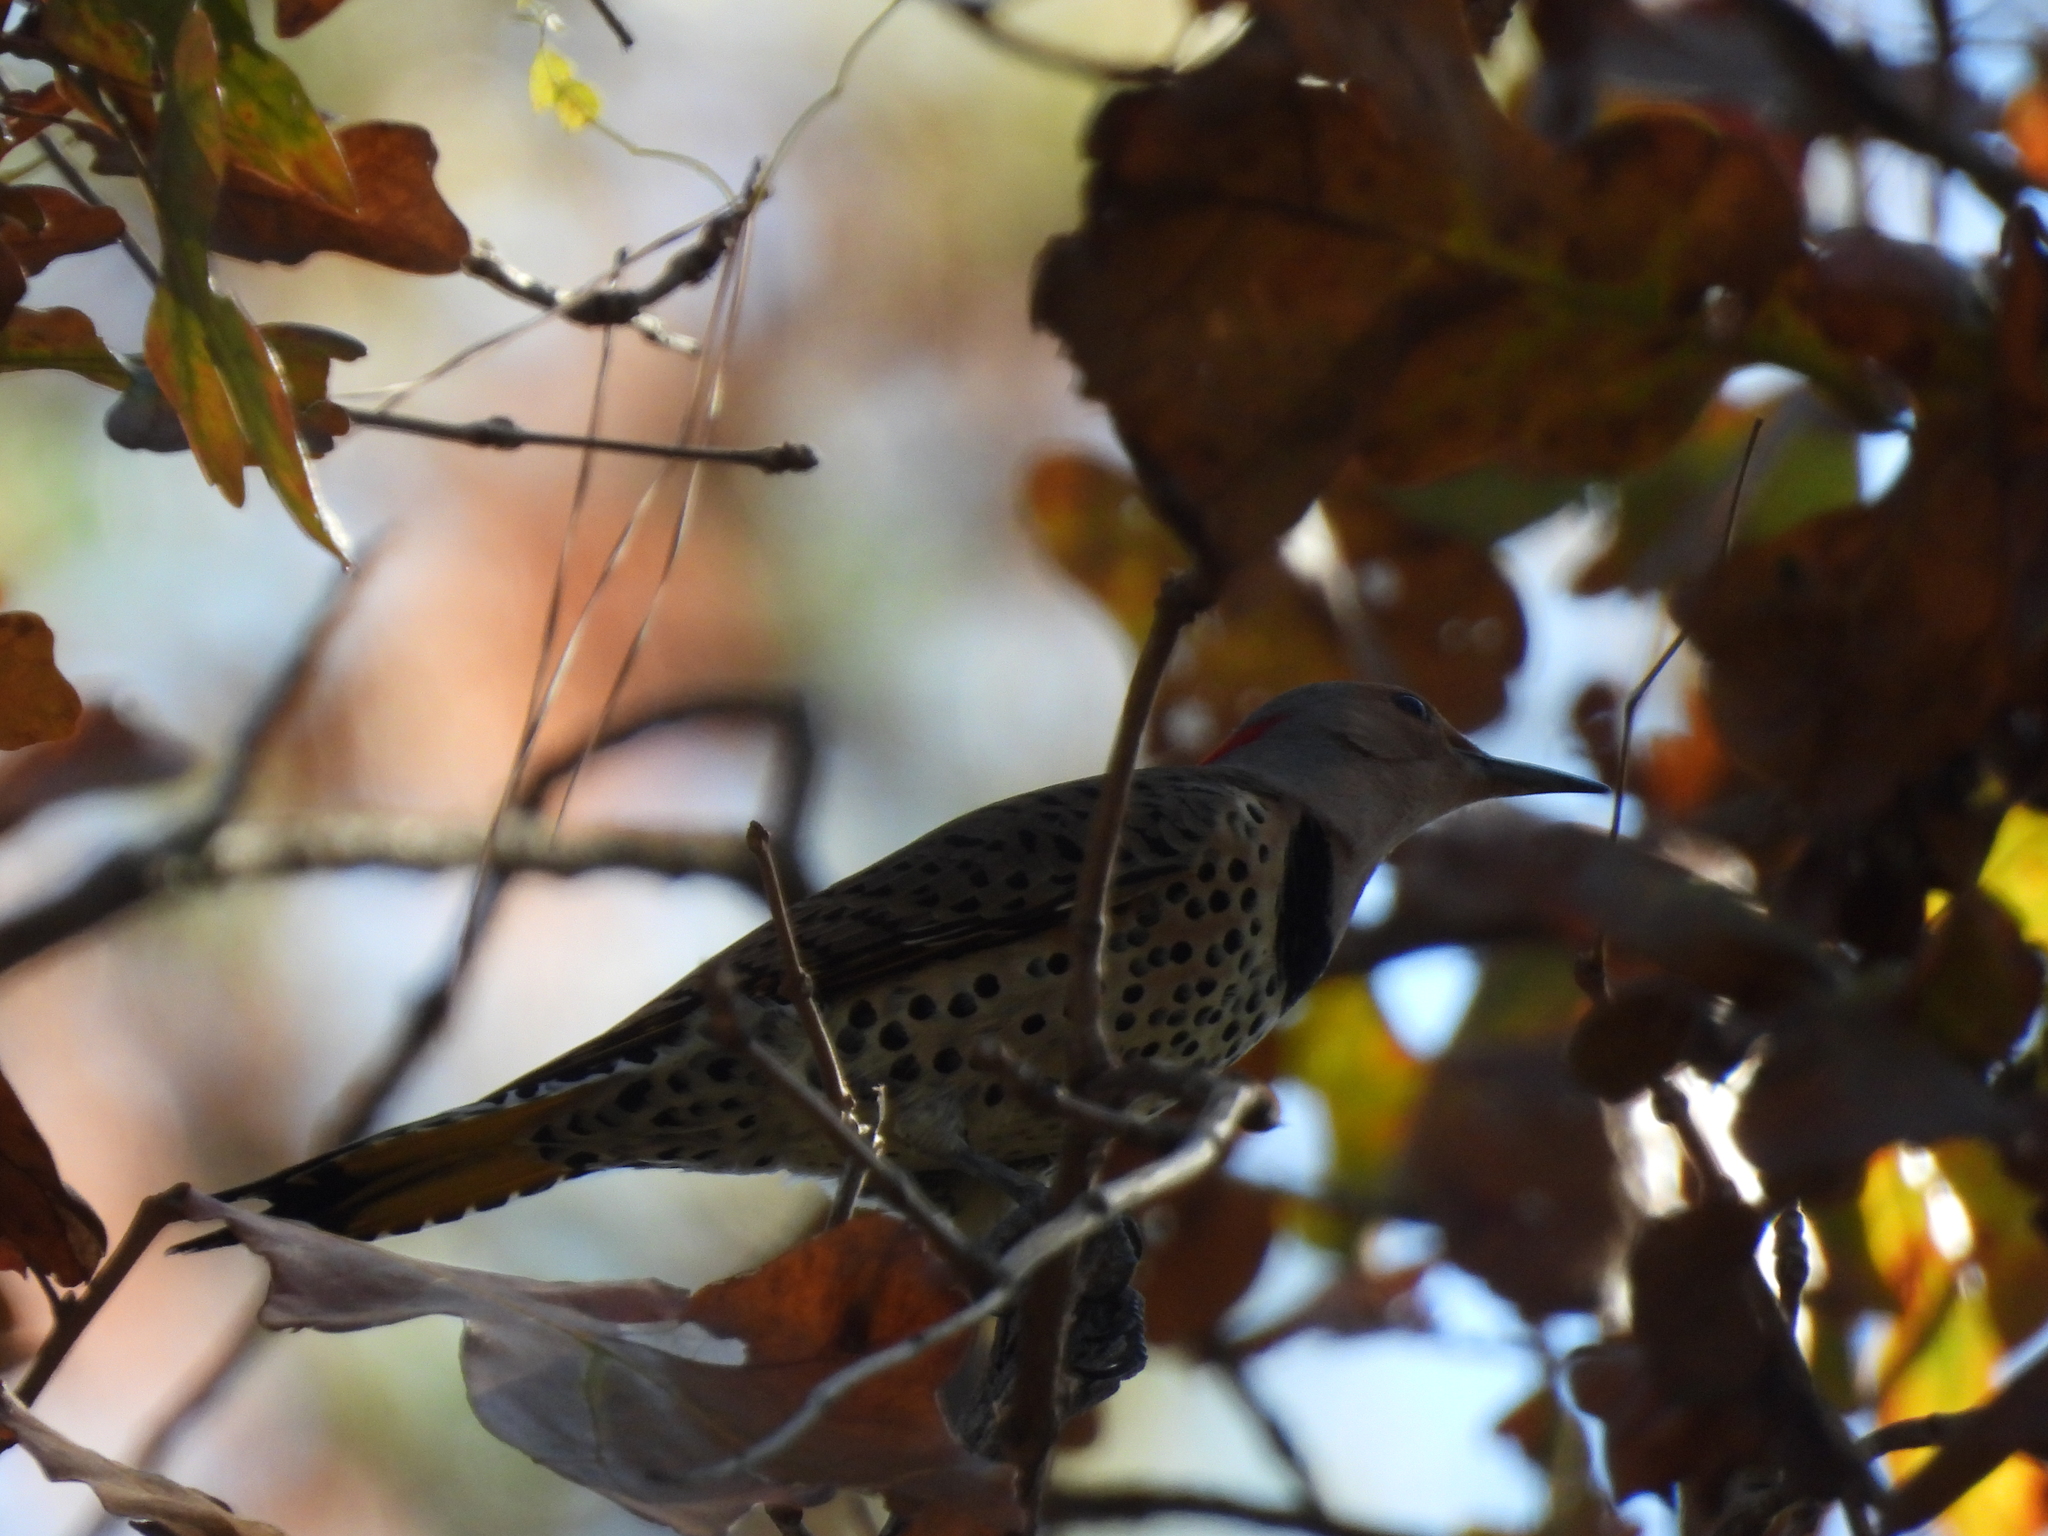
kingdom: Animalia
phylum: Chordata
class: Aves
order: Piciformes
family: Picidae
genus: Colaptes
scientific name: Colaptes auratus
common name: Northern flicker
